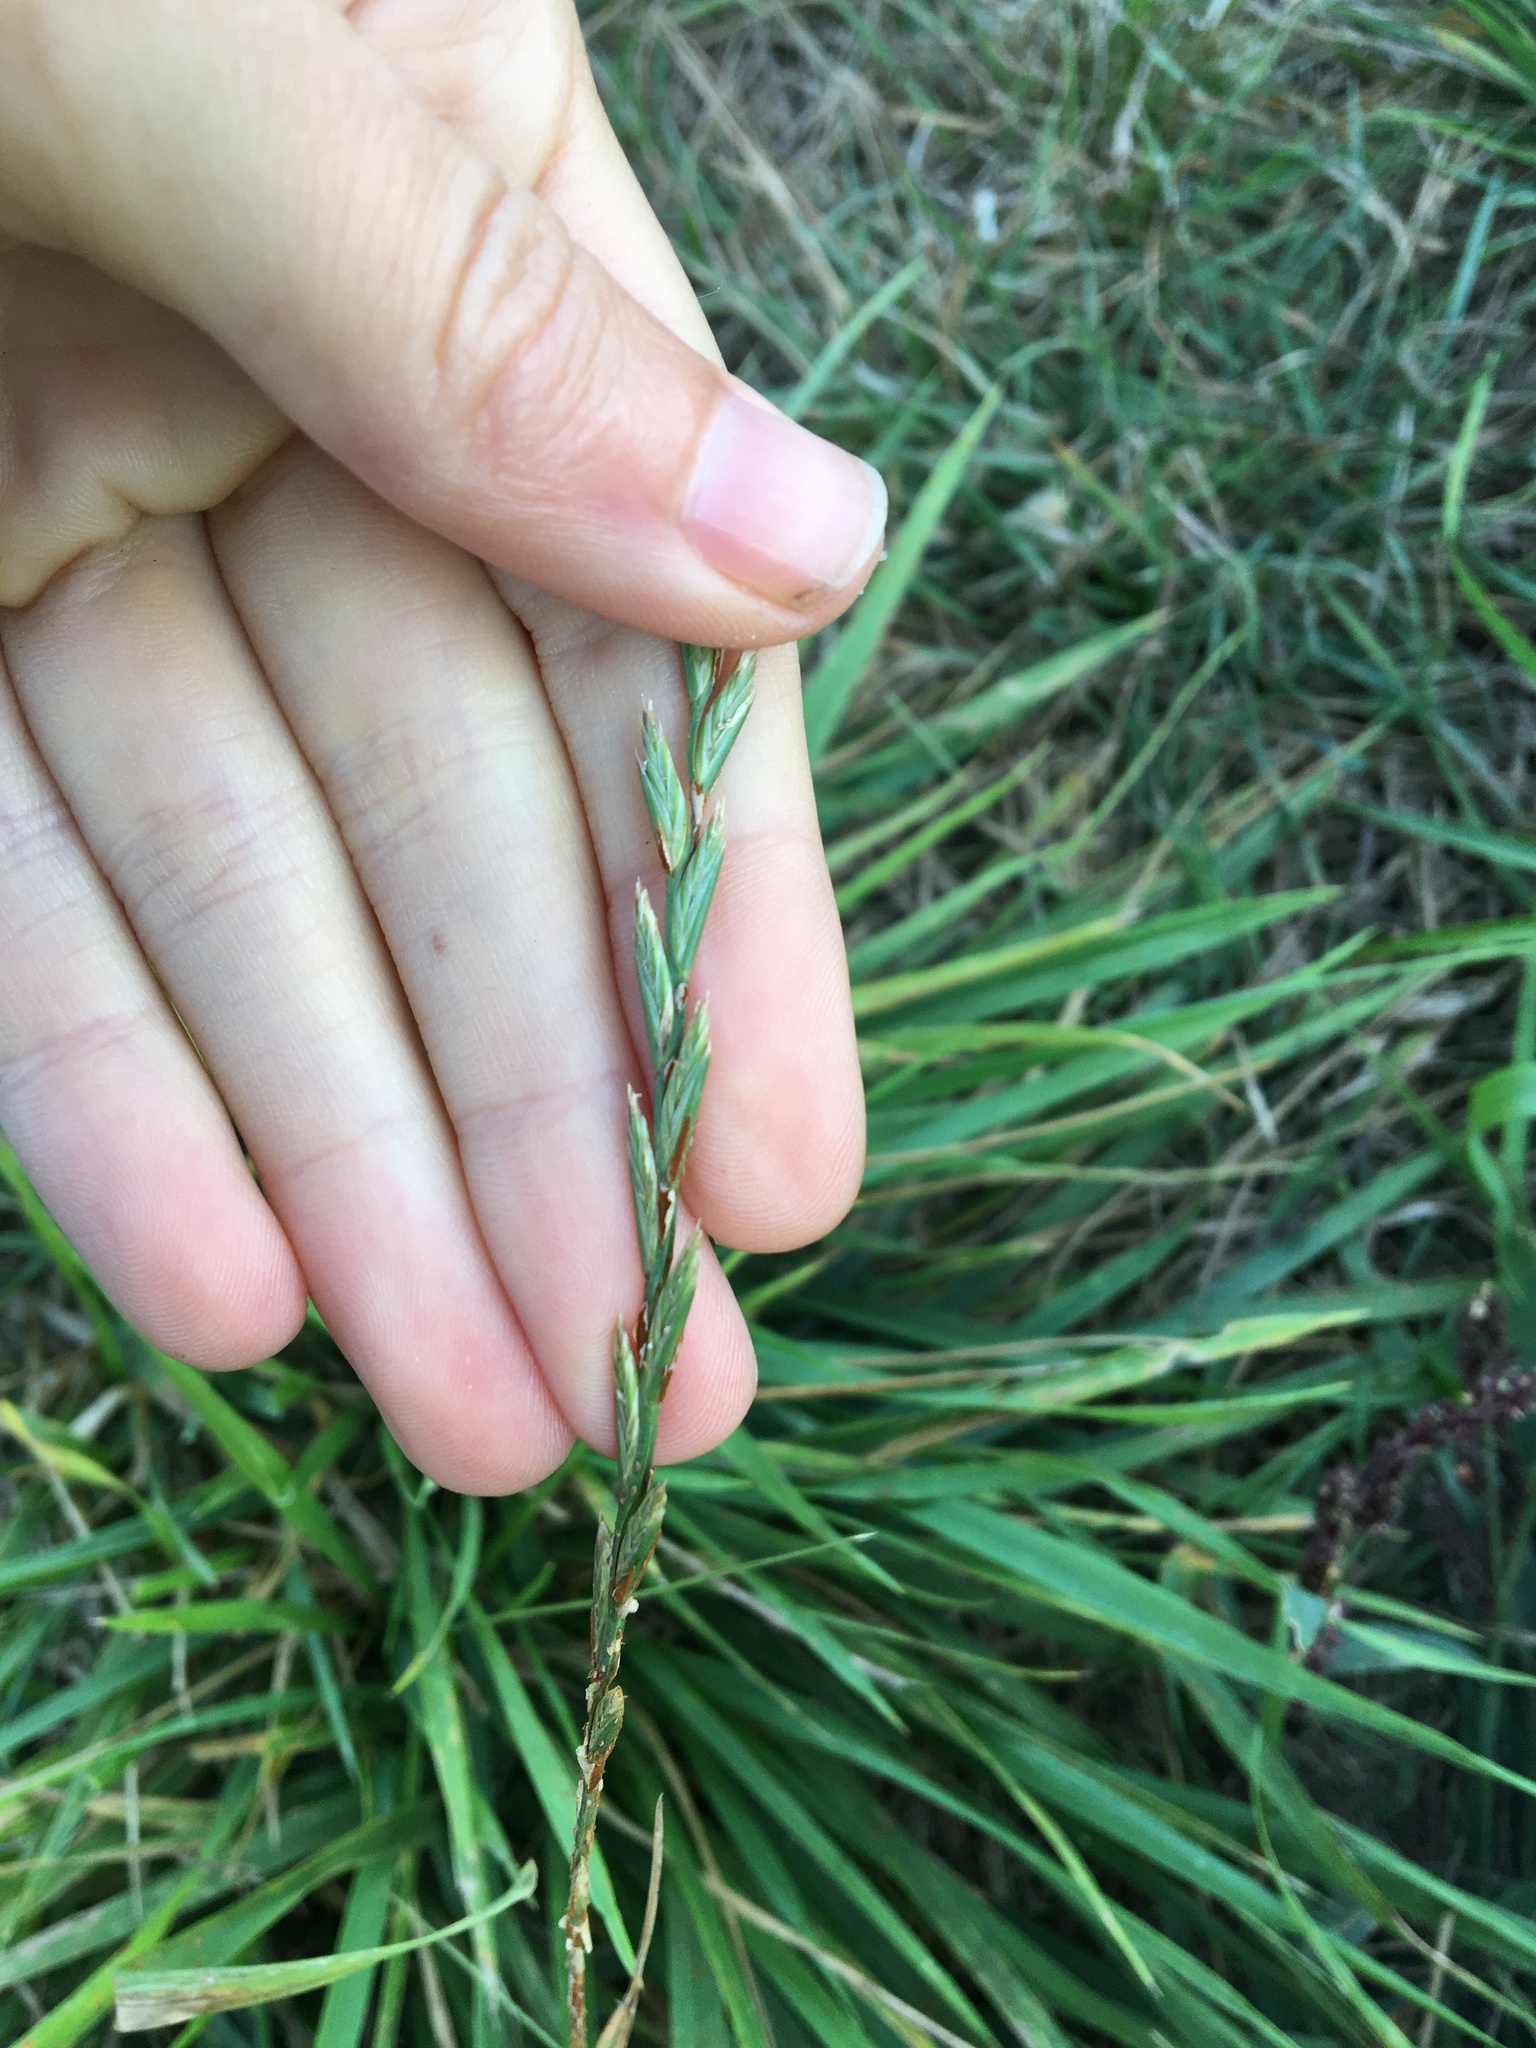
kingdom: Plantae
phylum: Tracheophyta
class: Liliopsida
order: Poales
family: Poaceae
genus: Lolium
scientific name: Lolium perenne
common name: Perennial ryegrass
